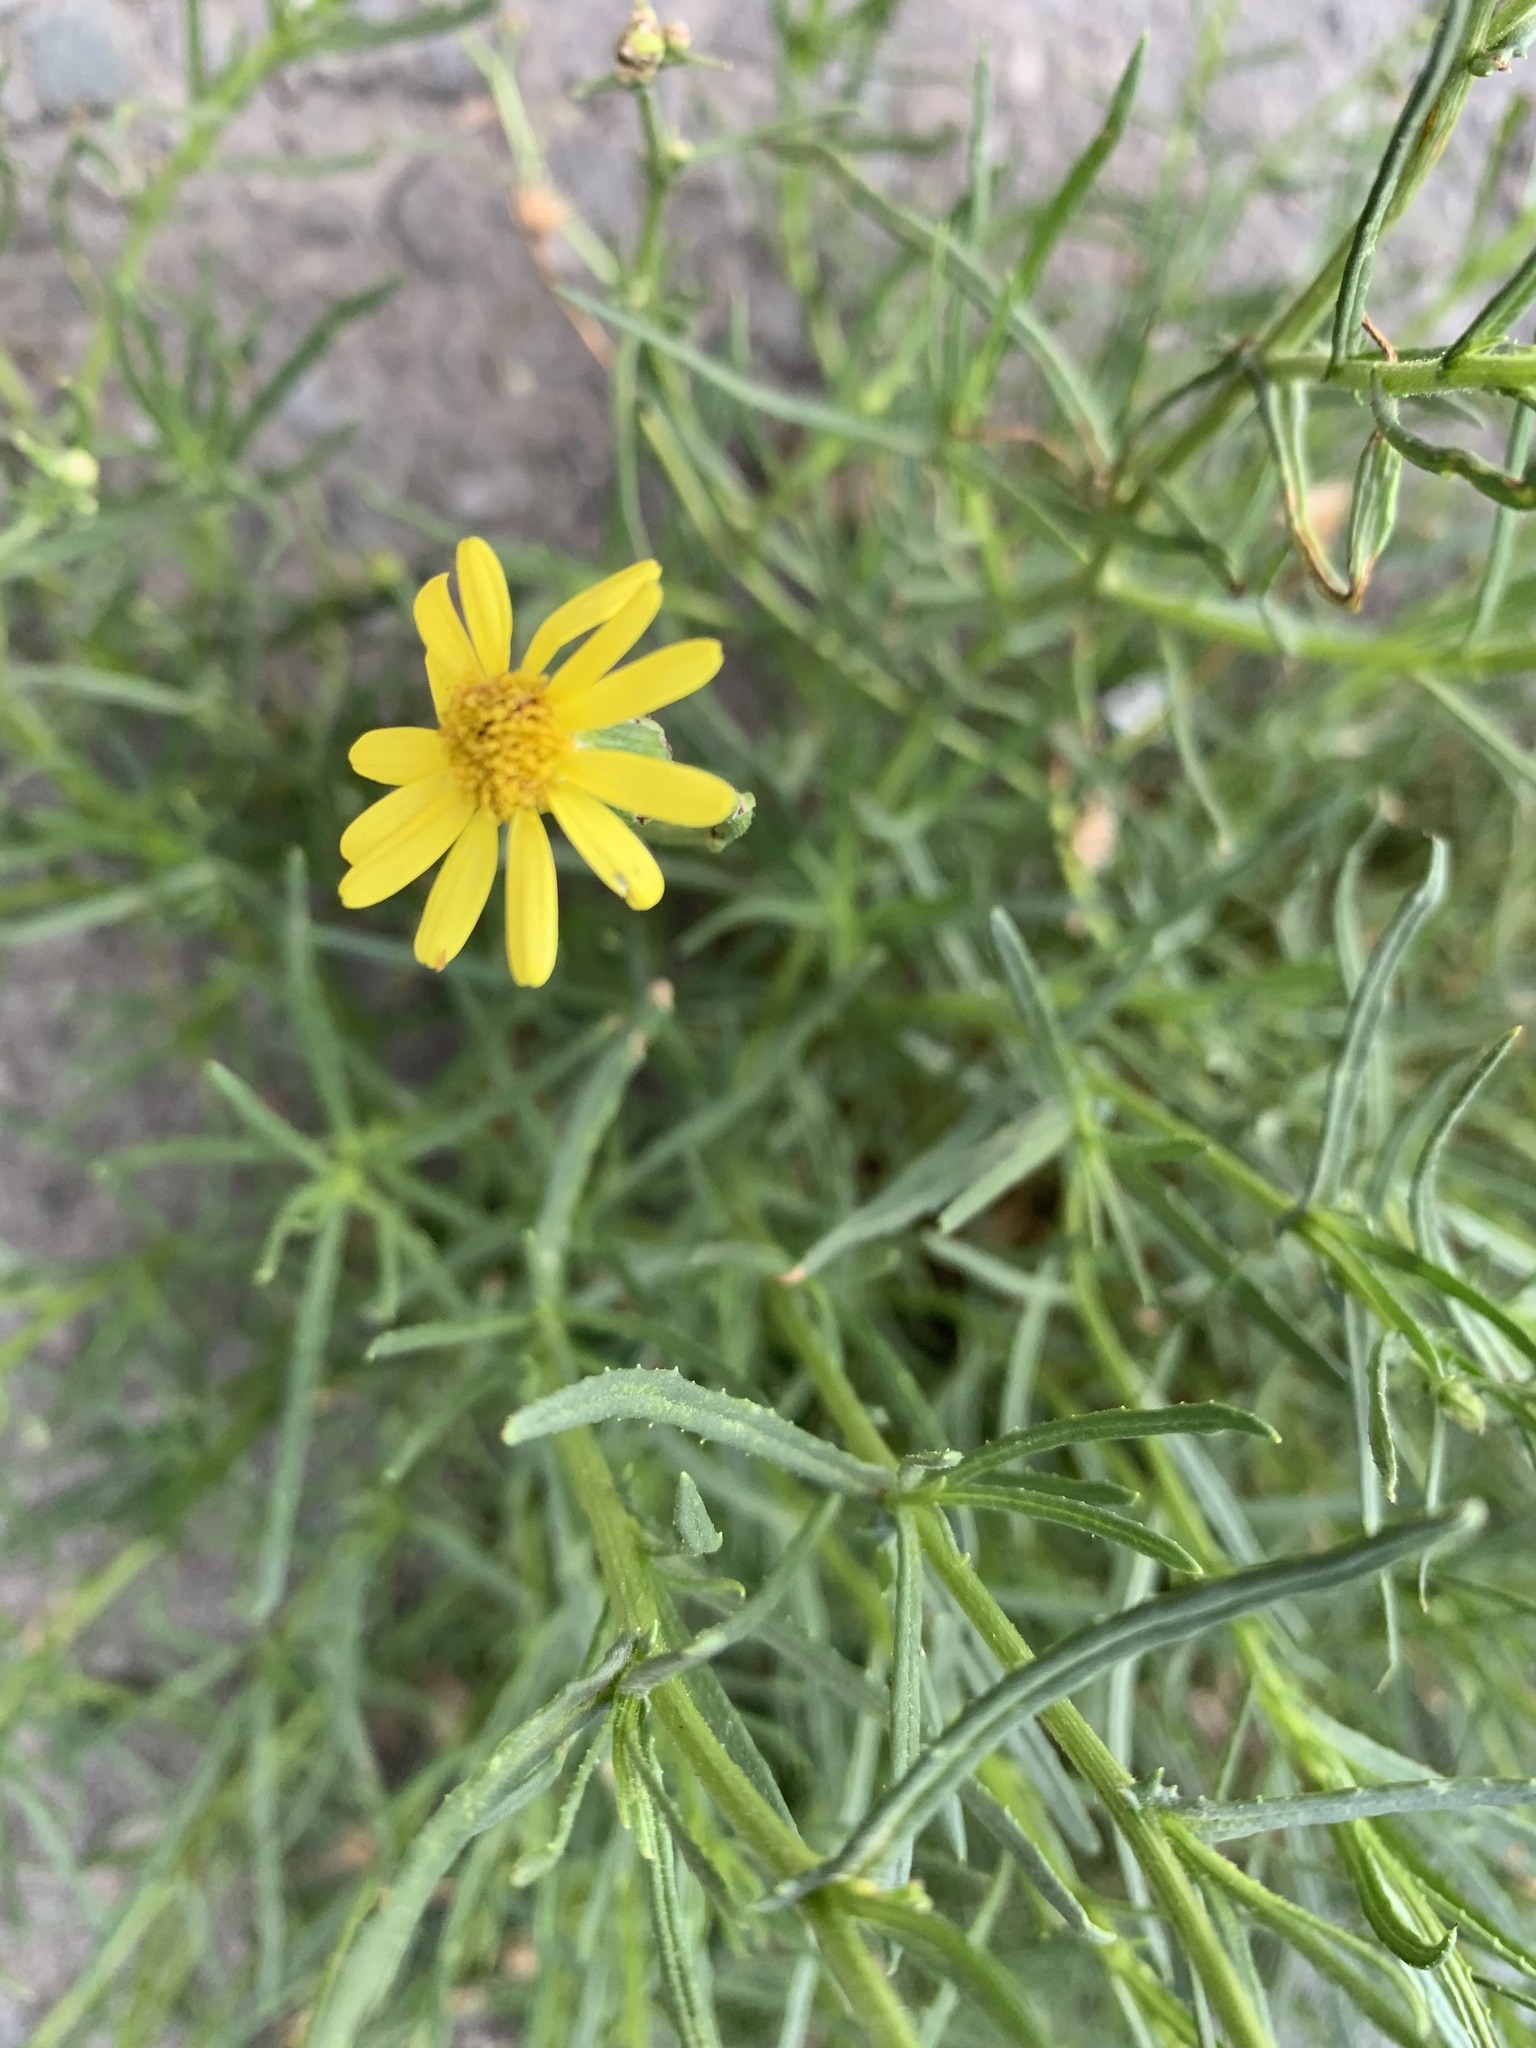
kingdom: Plantae
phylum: Tracheophyta
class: Magnoliopsida
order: Asterales
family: Asteraceae
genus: Senecio
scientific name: Senecio inaequidens
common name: Narrow-leaved ragwort
